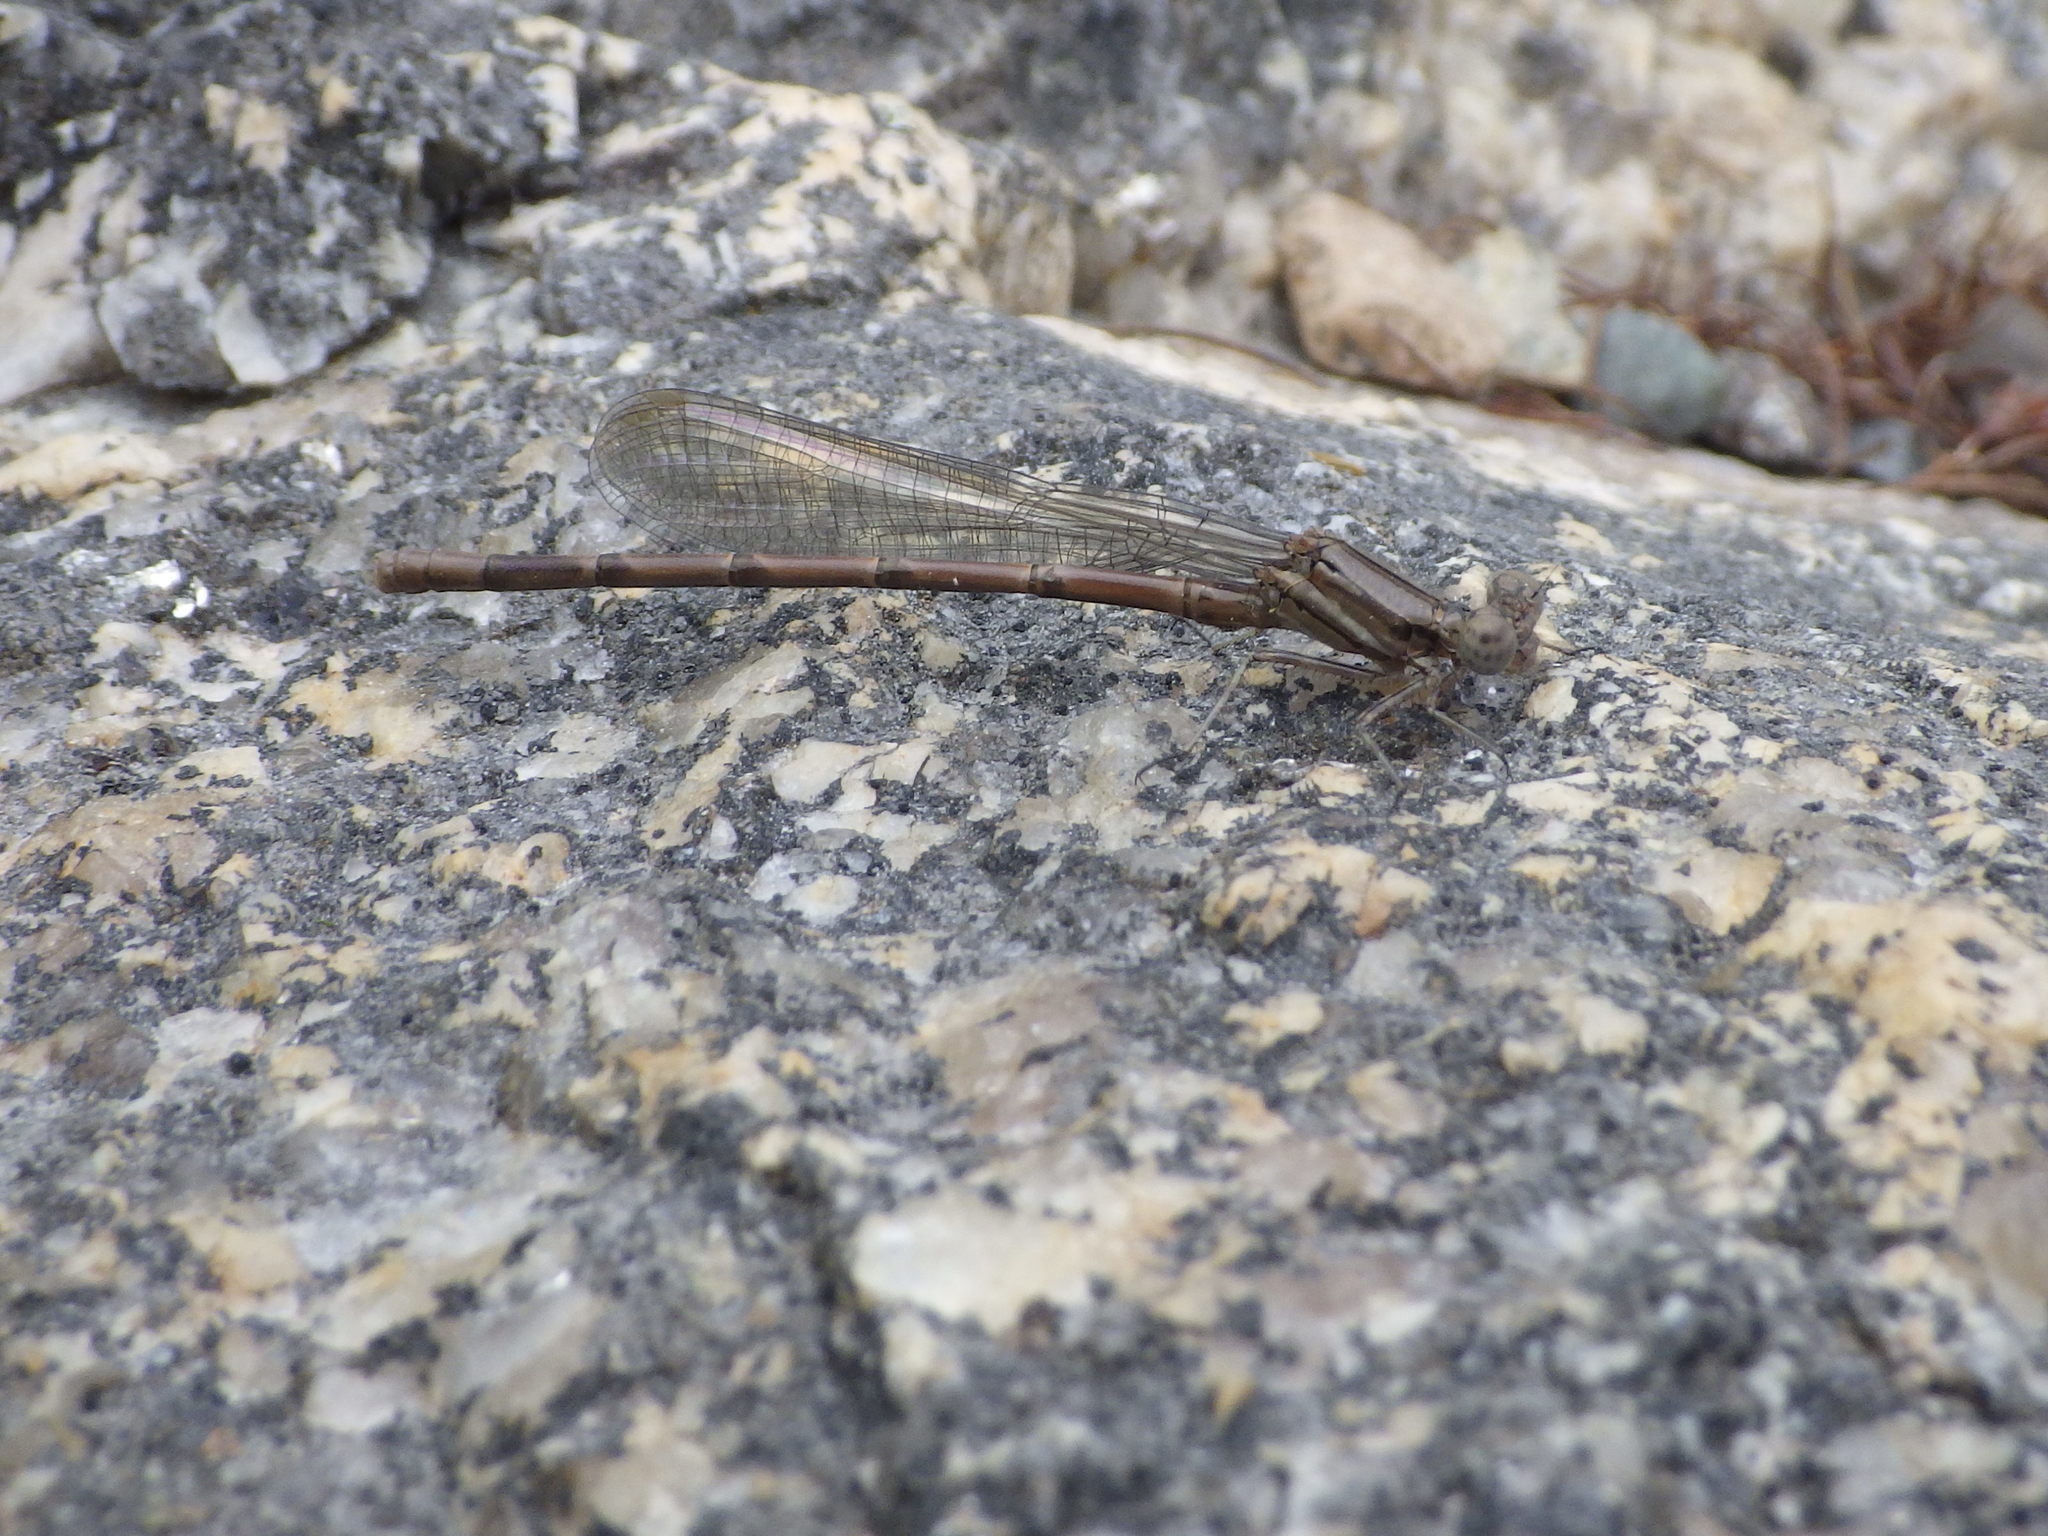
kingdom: Animalia
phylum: Arthropoda
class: Insecta
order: Odonata
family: Coenagrionidae
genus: Argia
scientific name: Argia fumipennis
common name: Variable dancer
